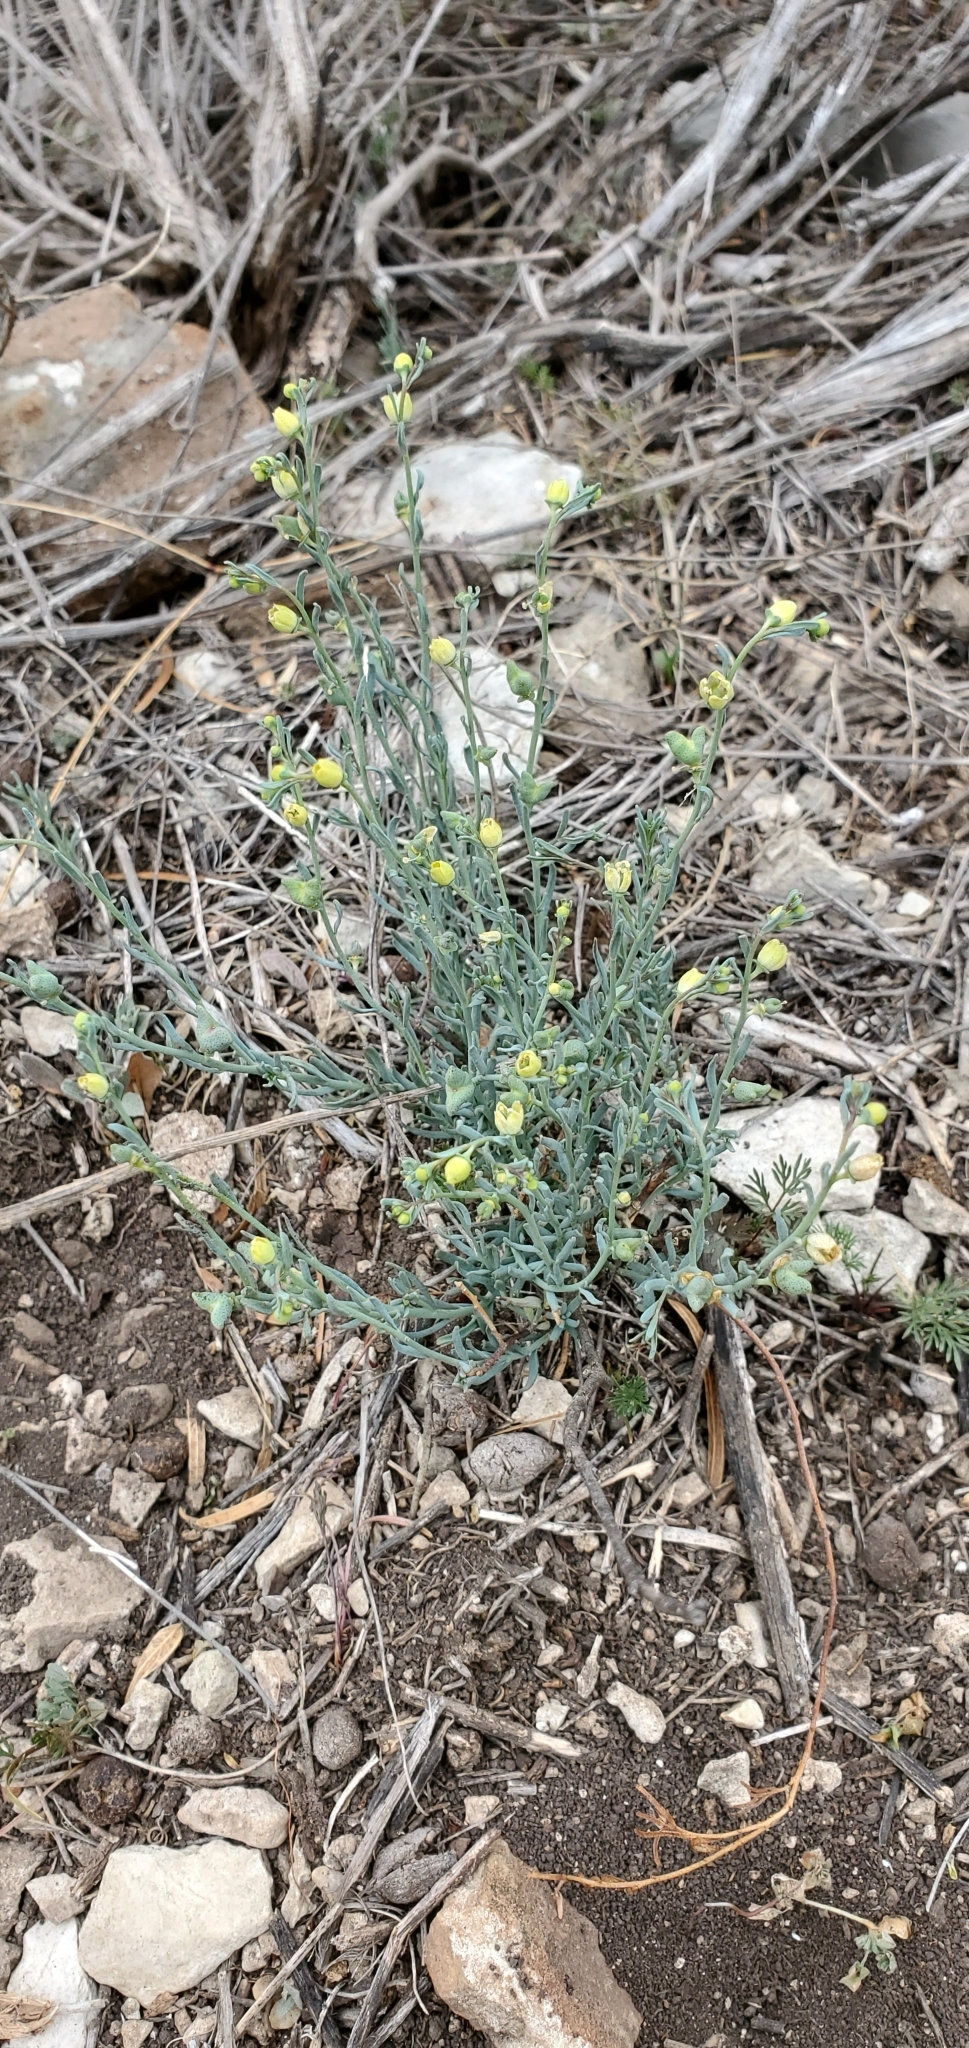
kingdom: Plantae
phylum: Tracheophyta
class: Magnoliopsida
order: Sapindales
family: Rutaceae
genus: Thamnosma
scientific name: Thamnosma texana
